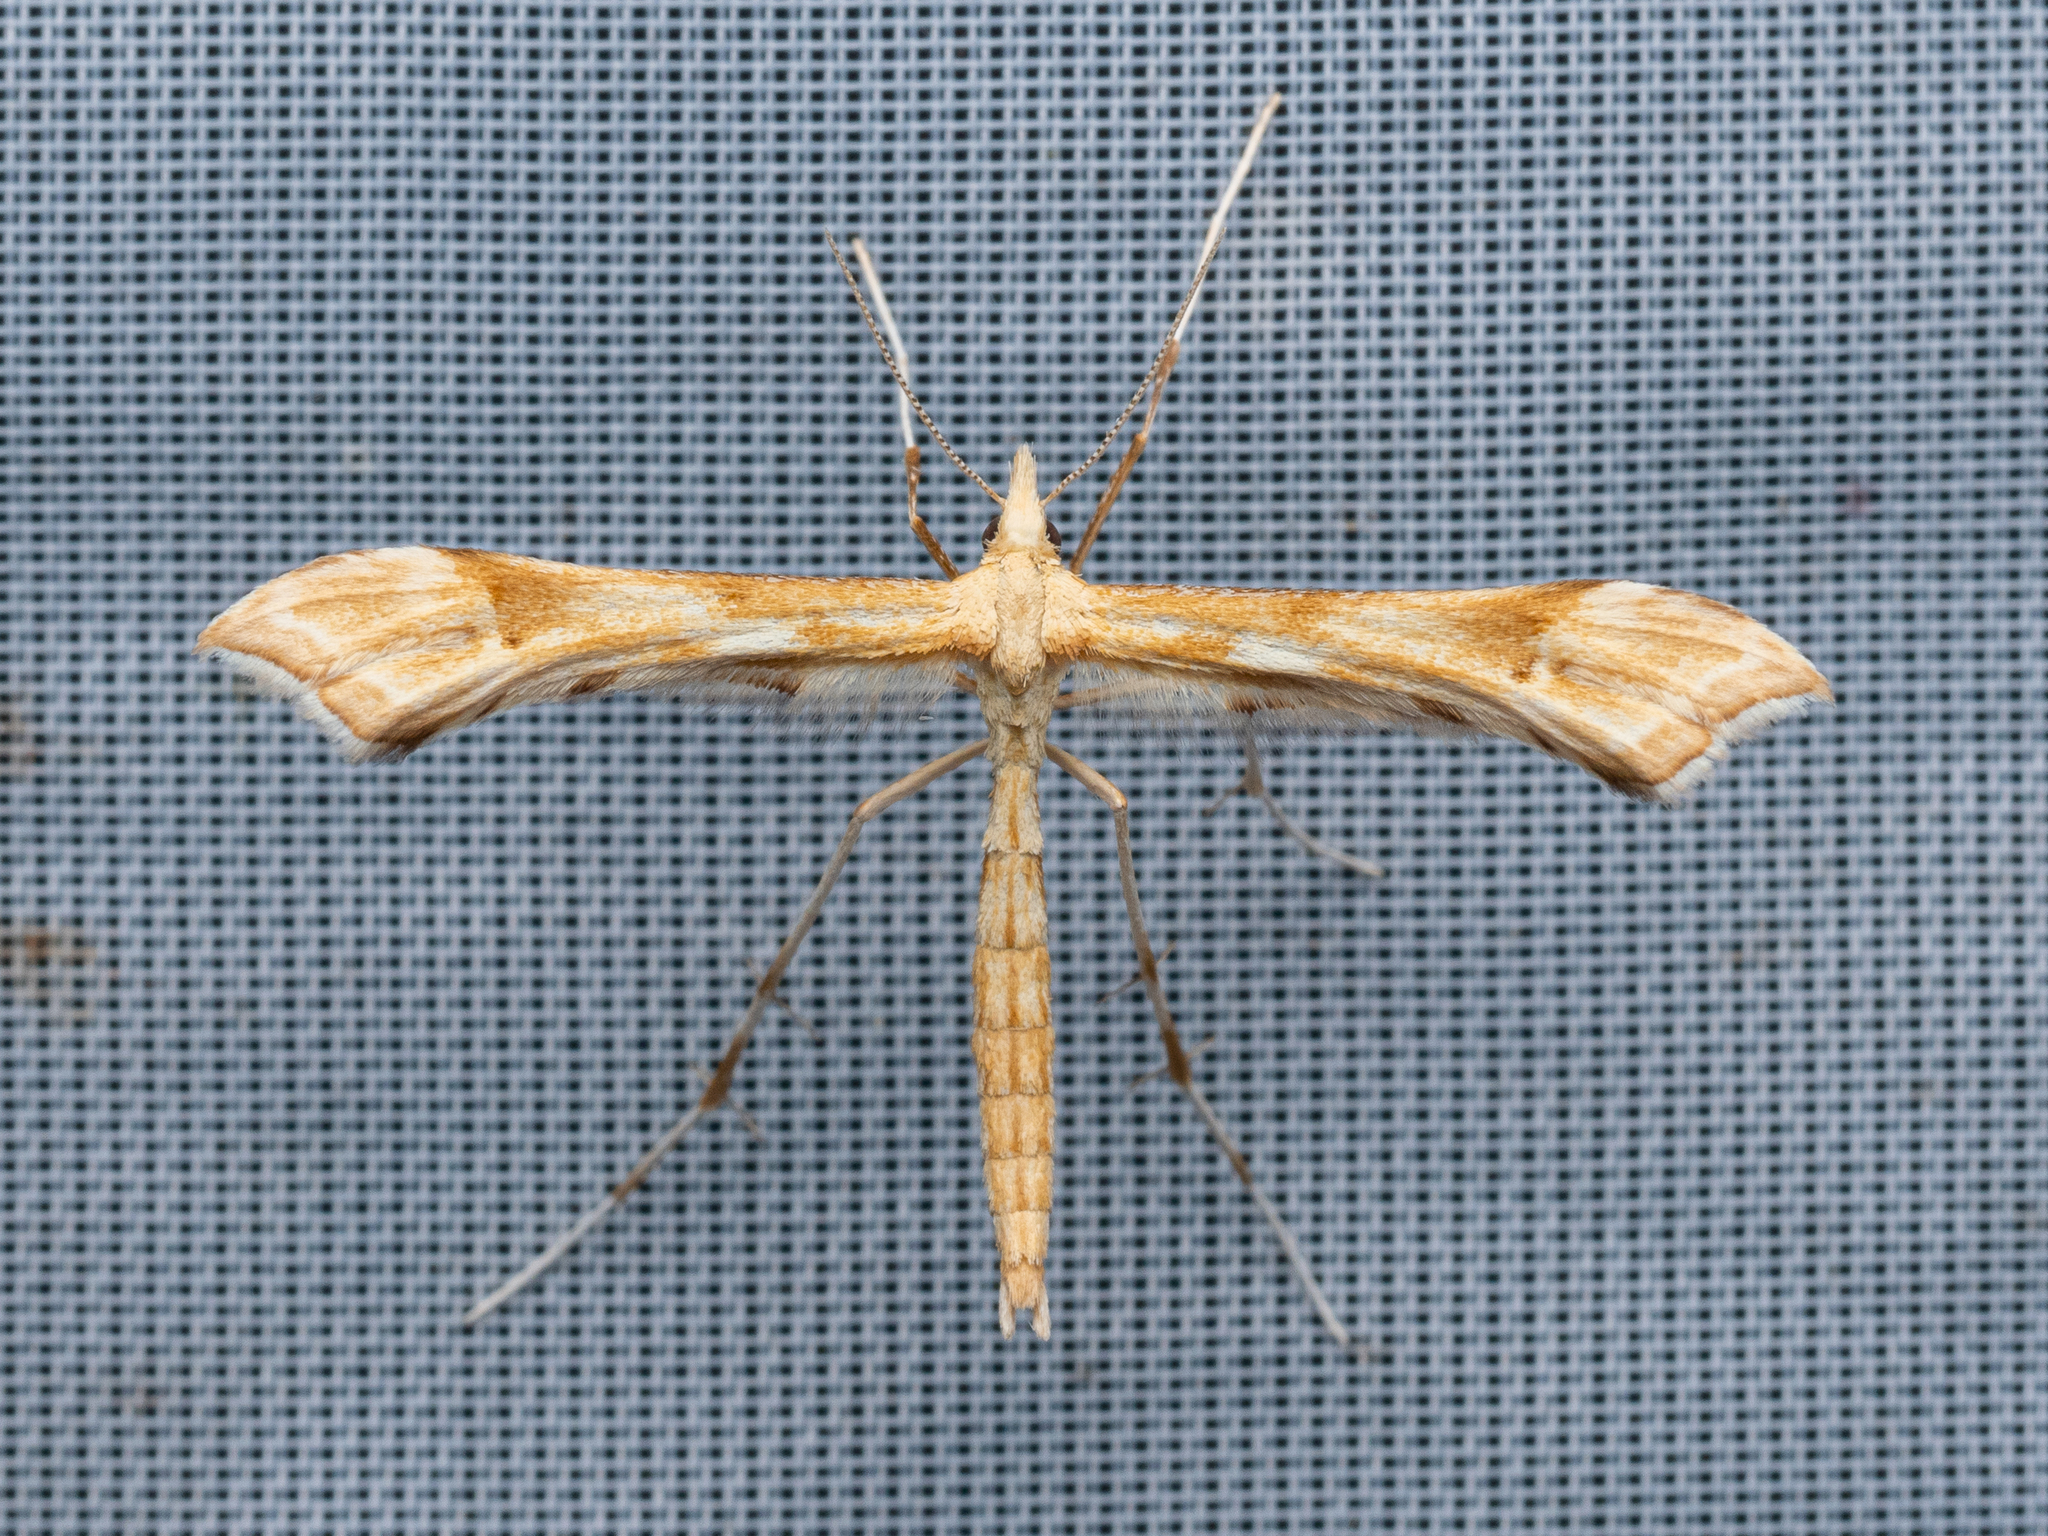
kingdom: Animalia
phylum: Arthropoda
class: Insecta
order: Lepidoptera
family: Pterophoridae
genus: Gillmeria
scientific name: Gillmeria ochrodactyla
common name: Tansy plume
